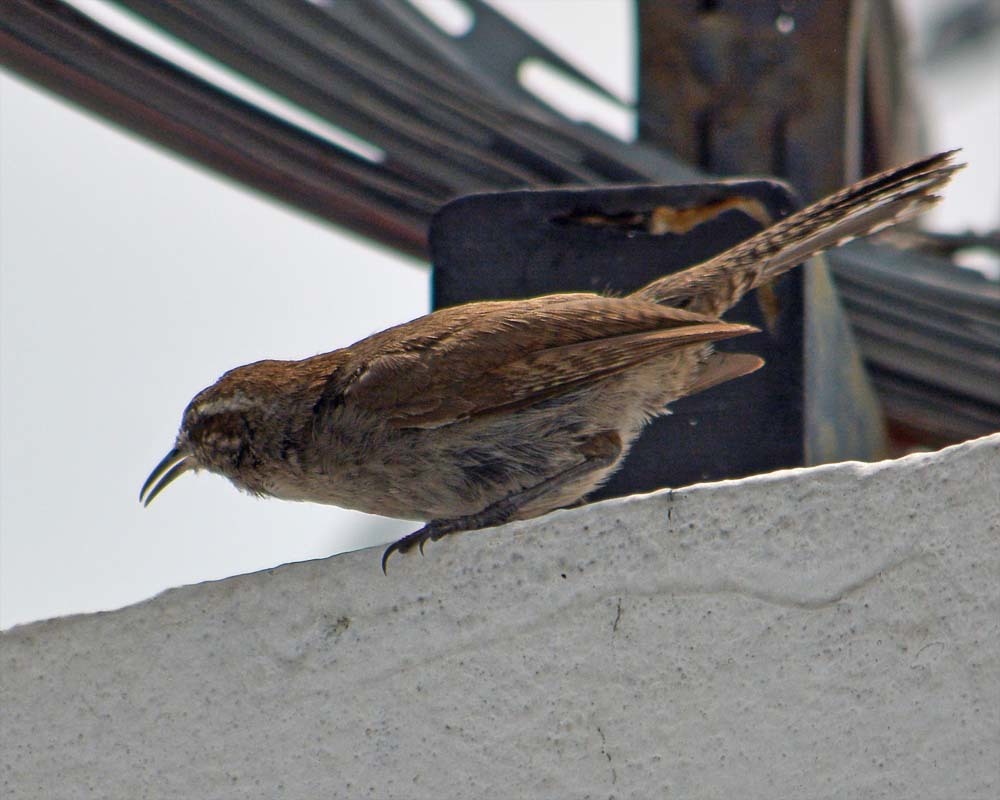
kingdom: Animalia
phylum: Chordata
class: Aves
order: Passeriformes
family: Troglodytidae
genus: Thryomanes
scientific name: Thryomanes bewickii
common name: Bewick's wren
